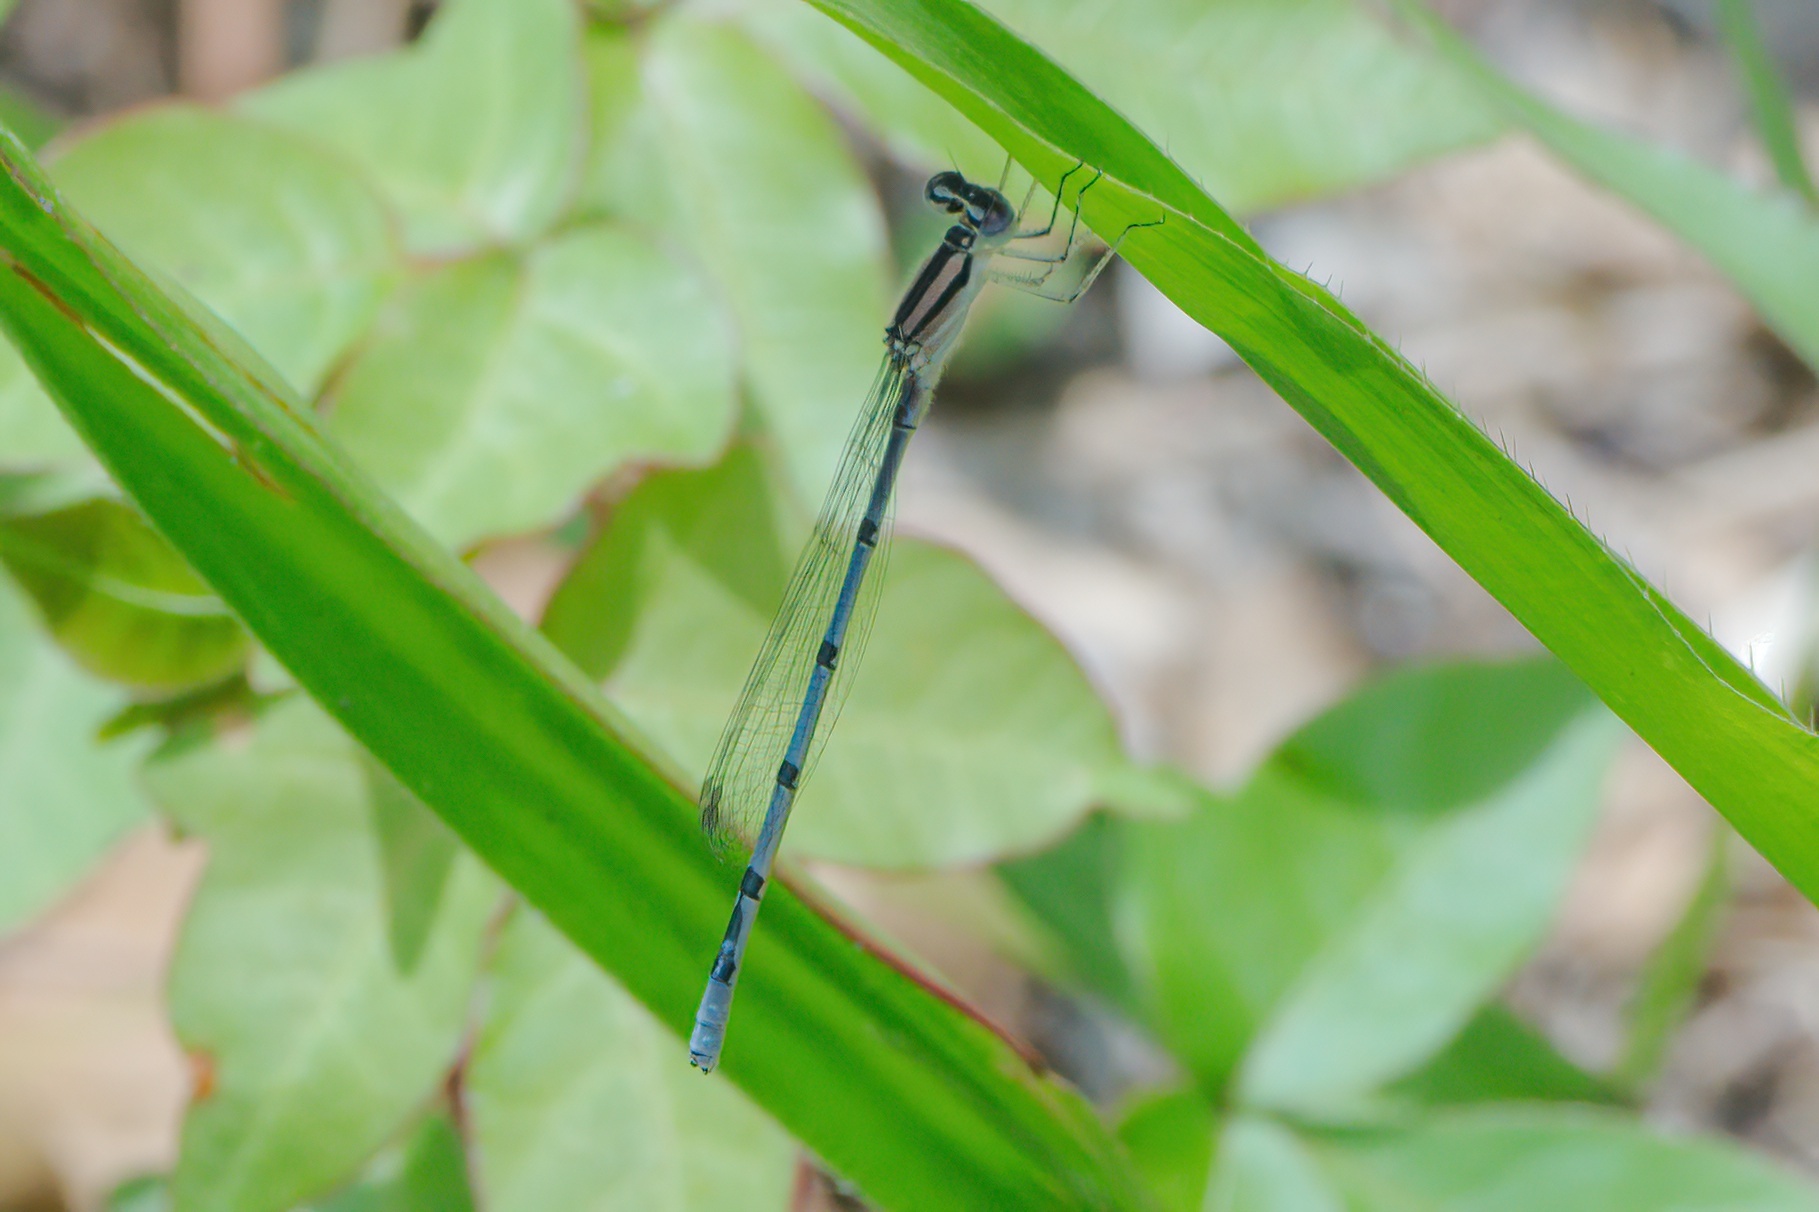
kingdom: Animalia
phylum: Arthropoda
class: Insecta
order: Odonata
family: Coenagrionidae
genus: Enallagma
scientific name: Enallagma doubledayi
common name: Atlantic bluet
